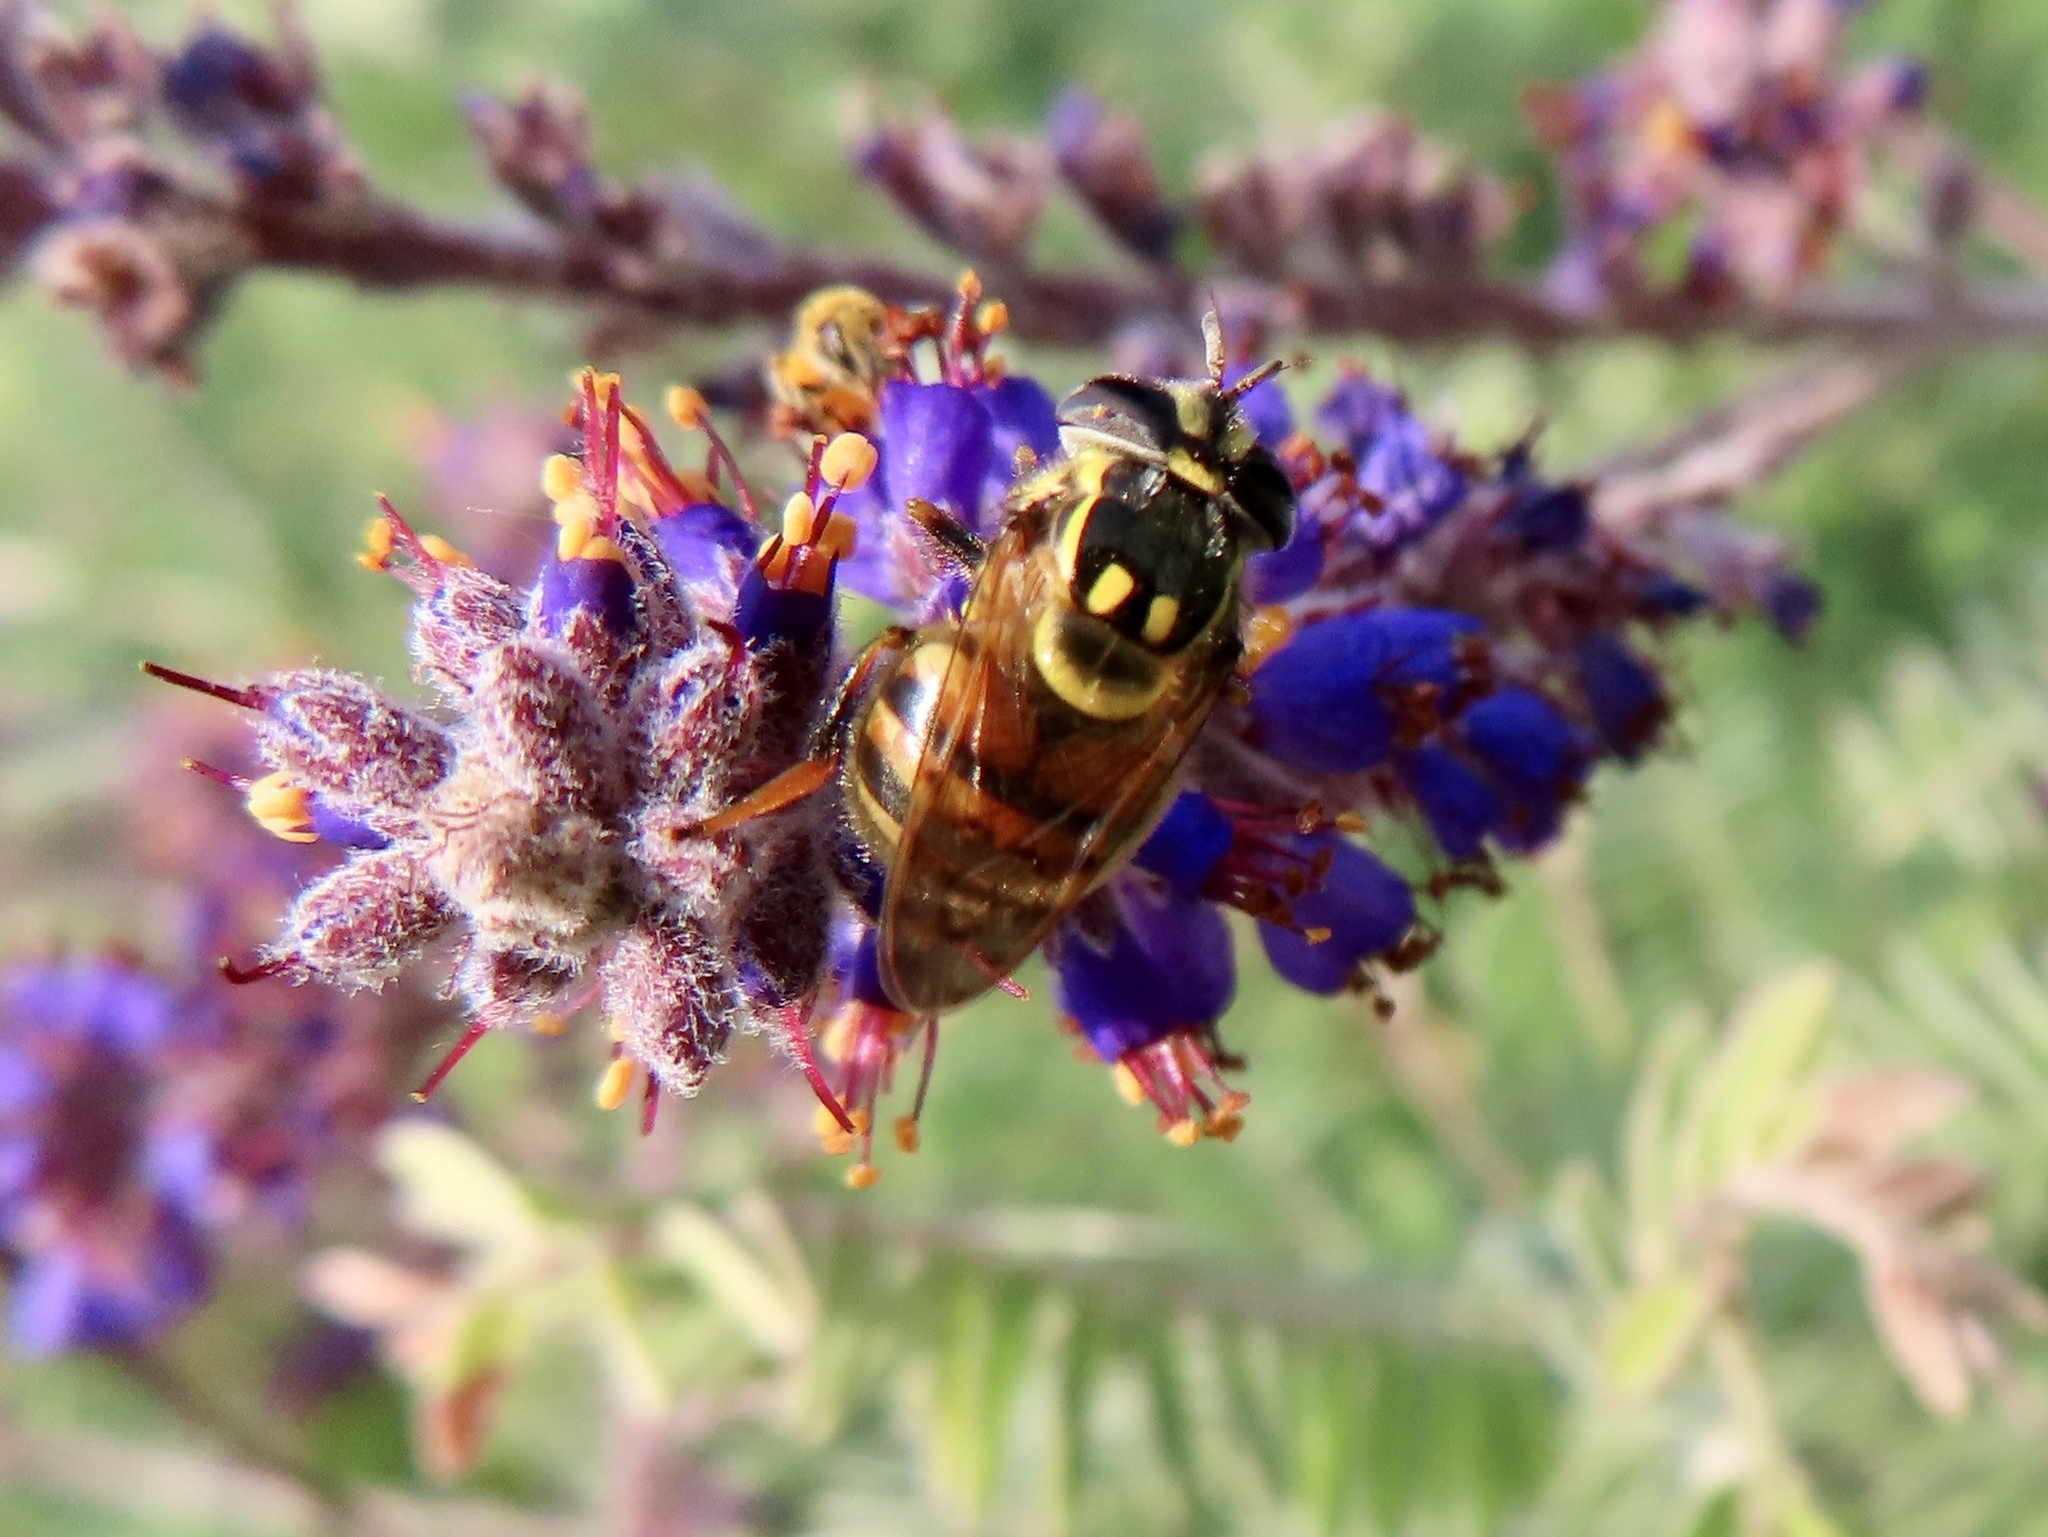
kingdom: Animalia
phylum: Arthropoda
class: Insecta
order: Diptera
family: Syrphidae
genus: Copestylum
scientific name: Copestylum vittatum
